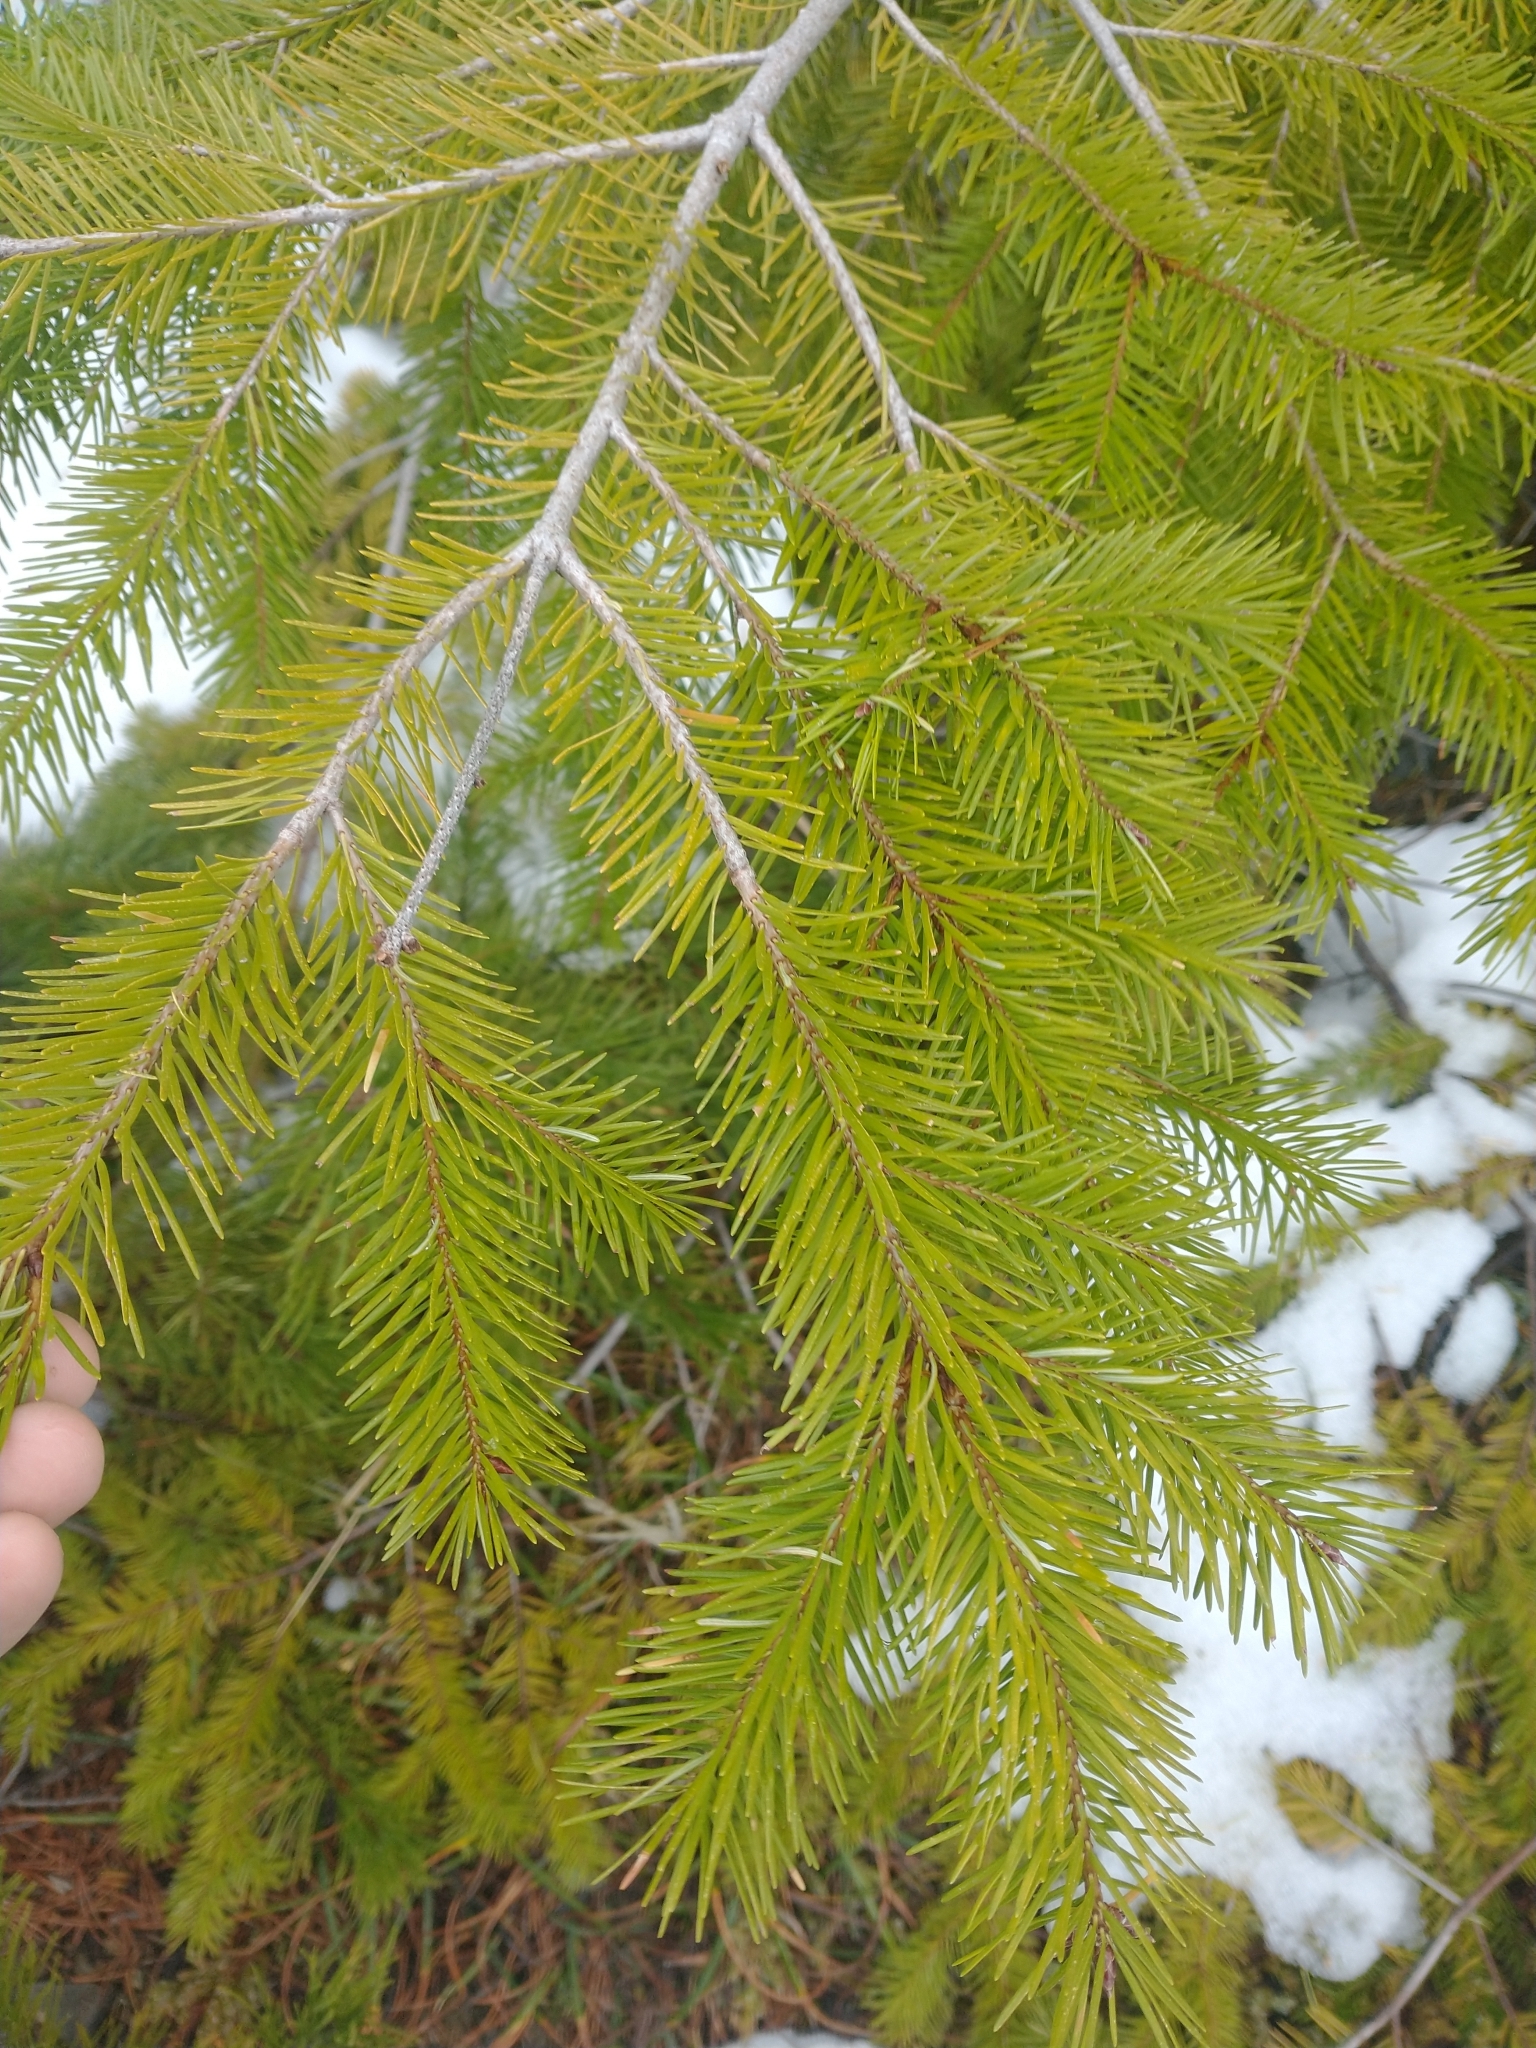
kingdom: Plantae
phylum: Tracheophyta
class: Pinopsida
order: Pinales
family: Pinaceae
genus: Pseudotsuga
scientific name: Pseudotsuga menziesii
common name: Douglas fir
